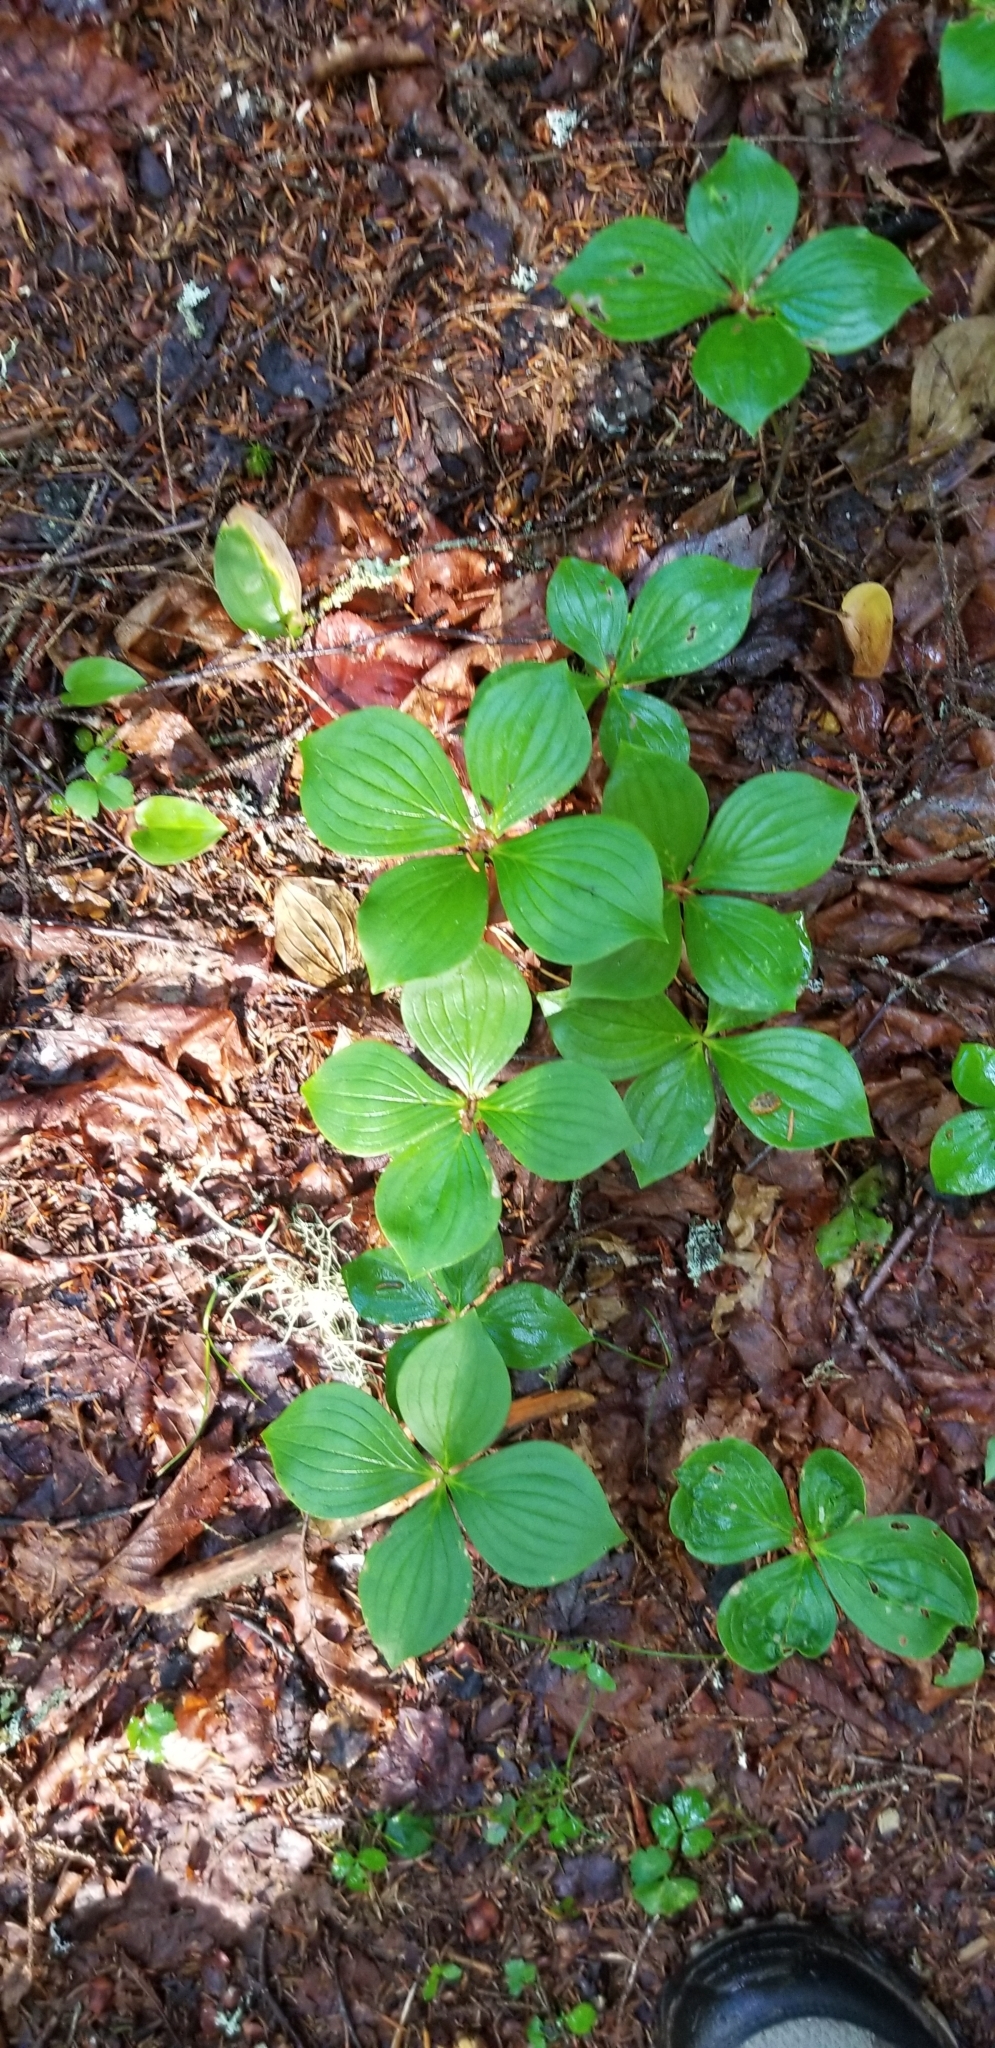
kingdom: Plantae
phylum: Tracheophyta
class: Magnoliopsida
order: Cornales
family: Cornaceae
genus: Cornus
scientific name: Cornus canadensis
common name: Creeping dogwood
